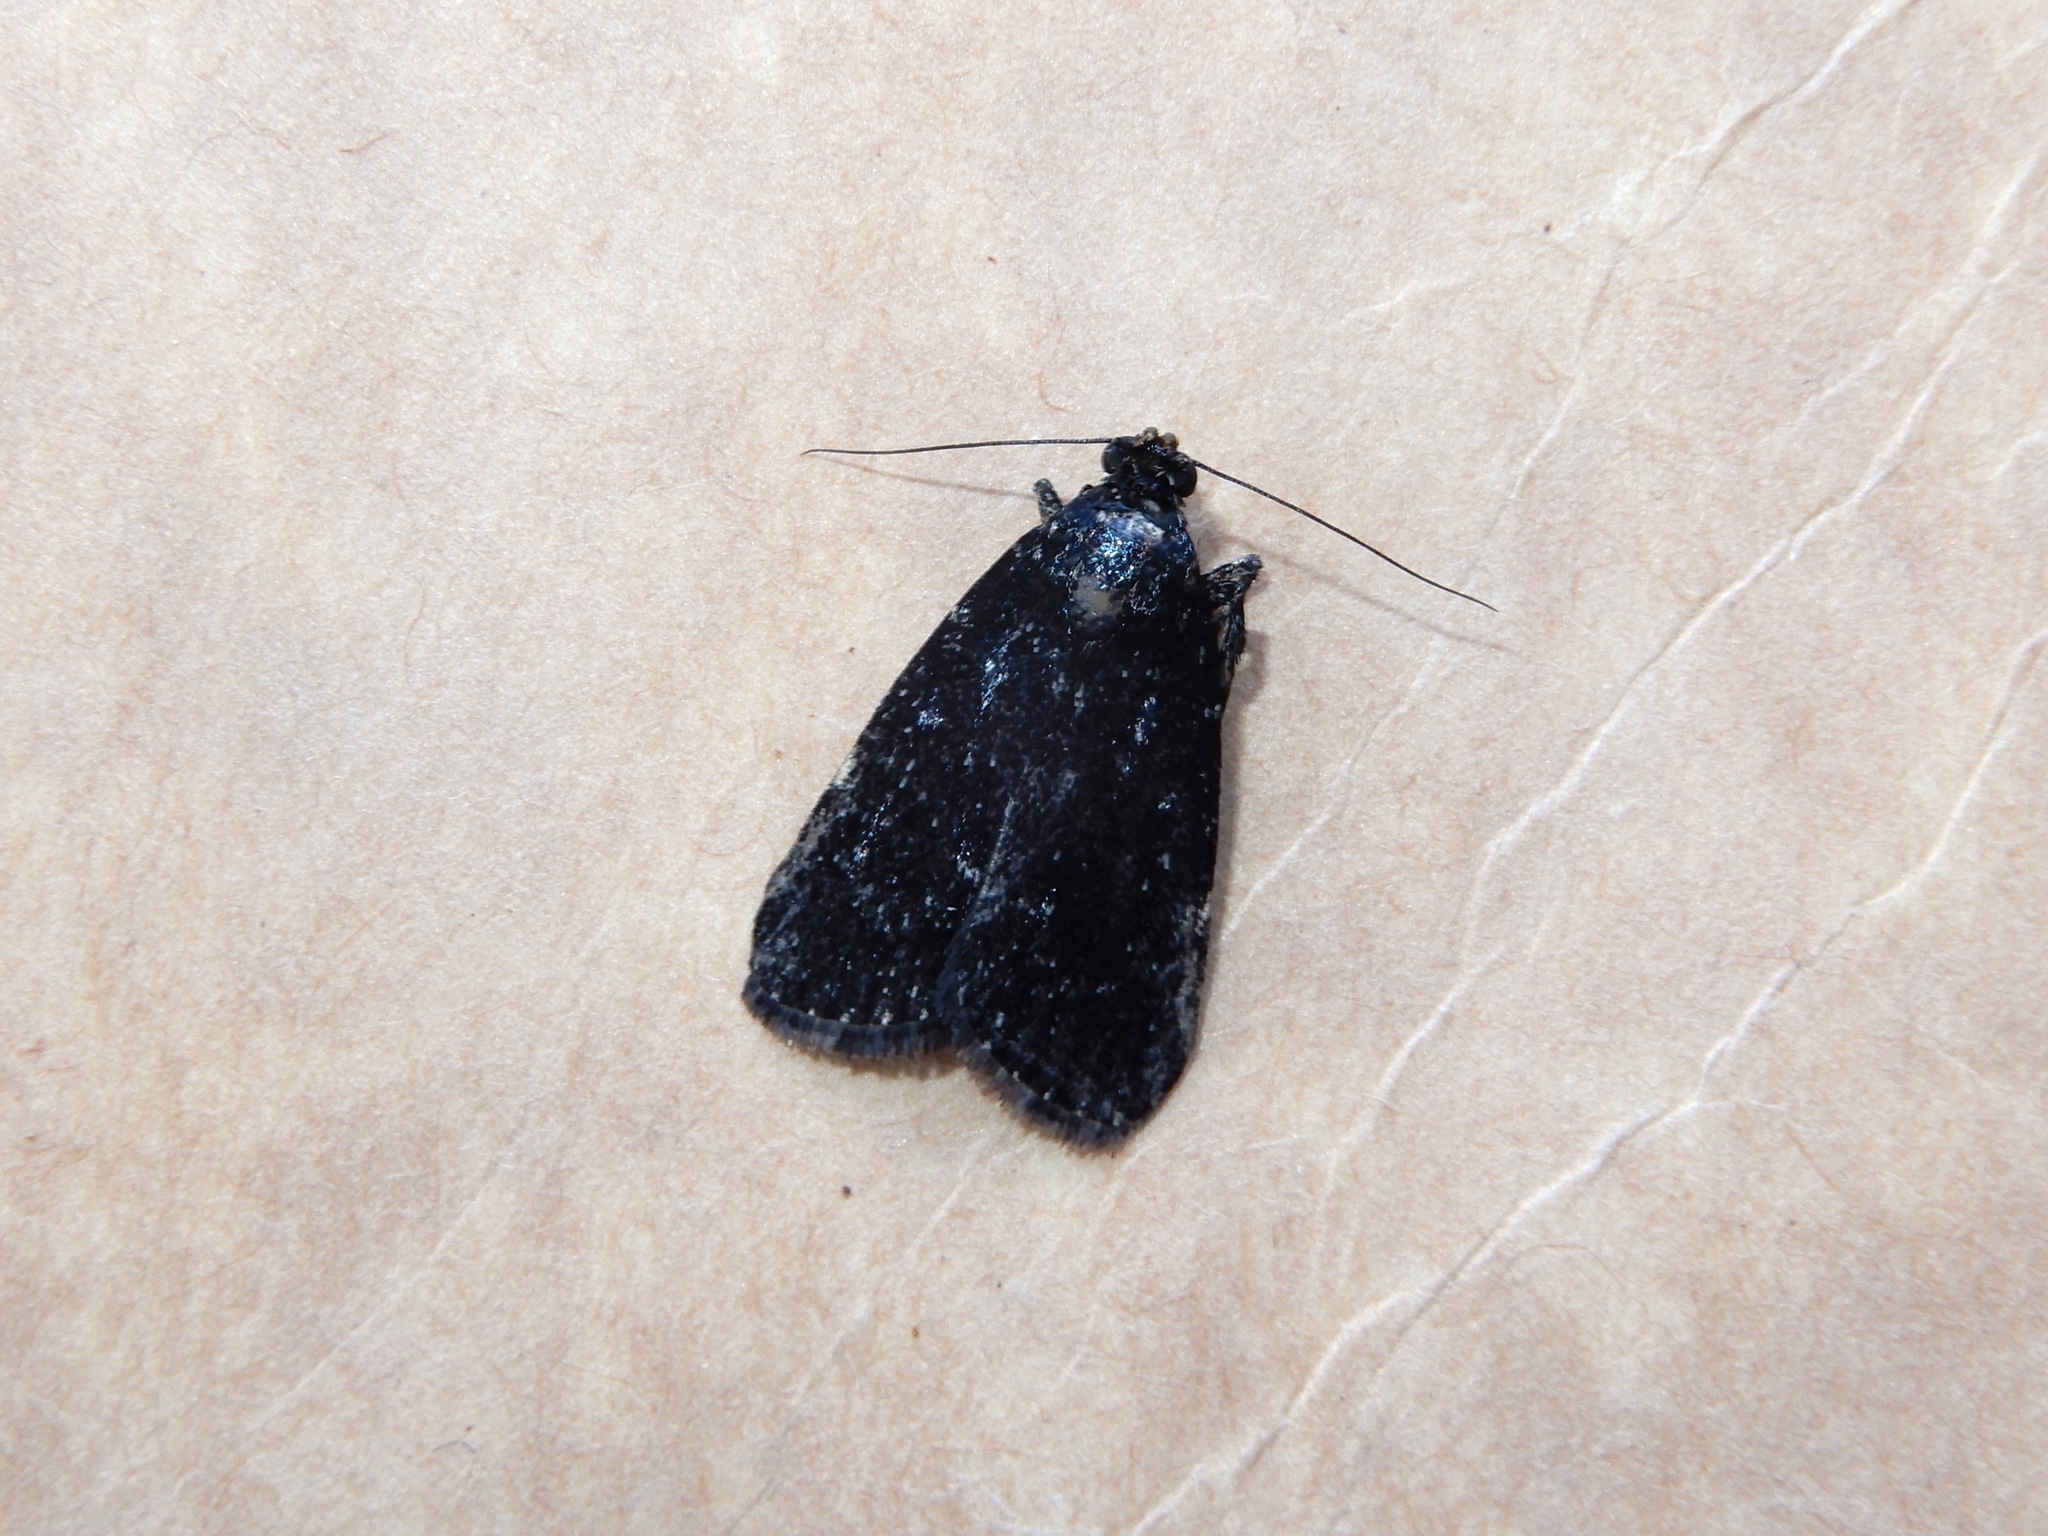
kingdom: Animalia
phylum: Arthropoda
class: Insecta
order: Lepidoptera
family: Pyralidae
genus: Stericta
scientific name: Stericta carbonalis
